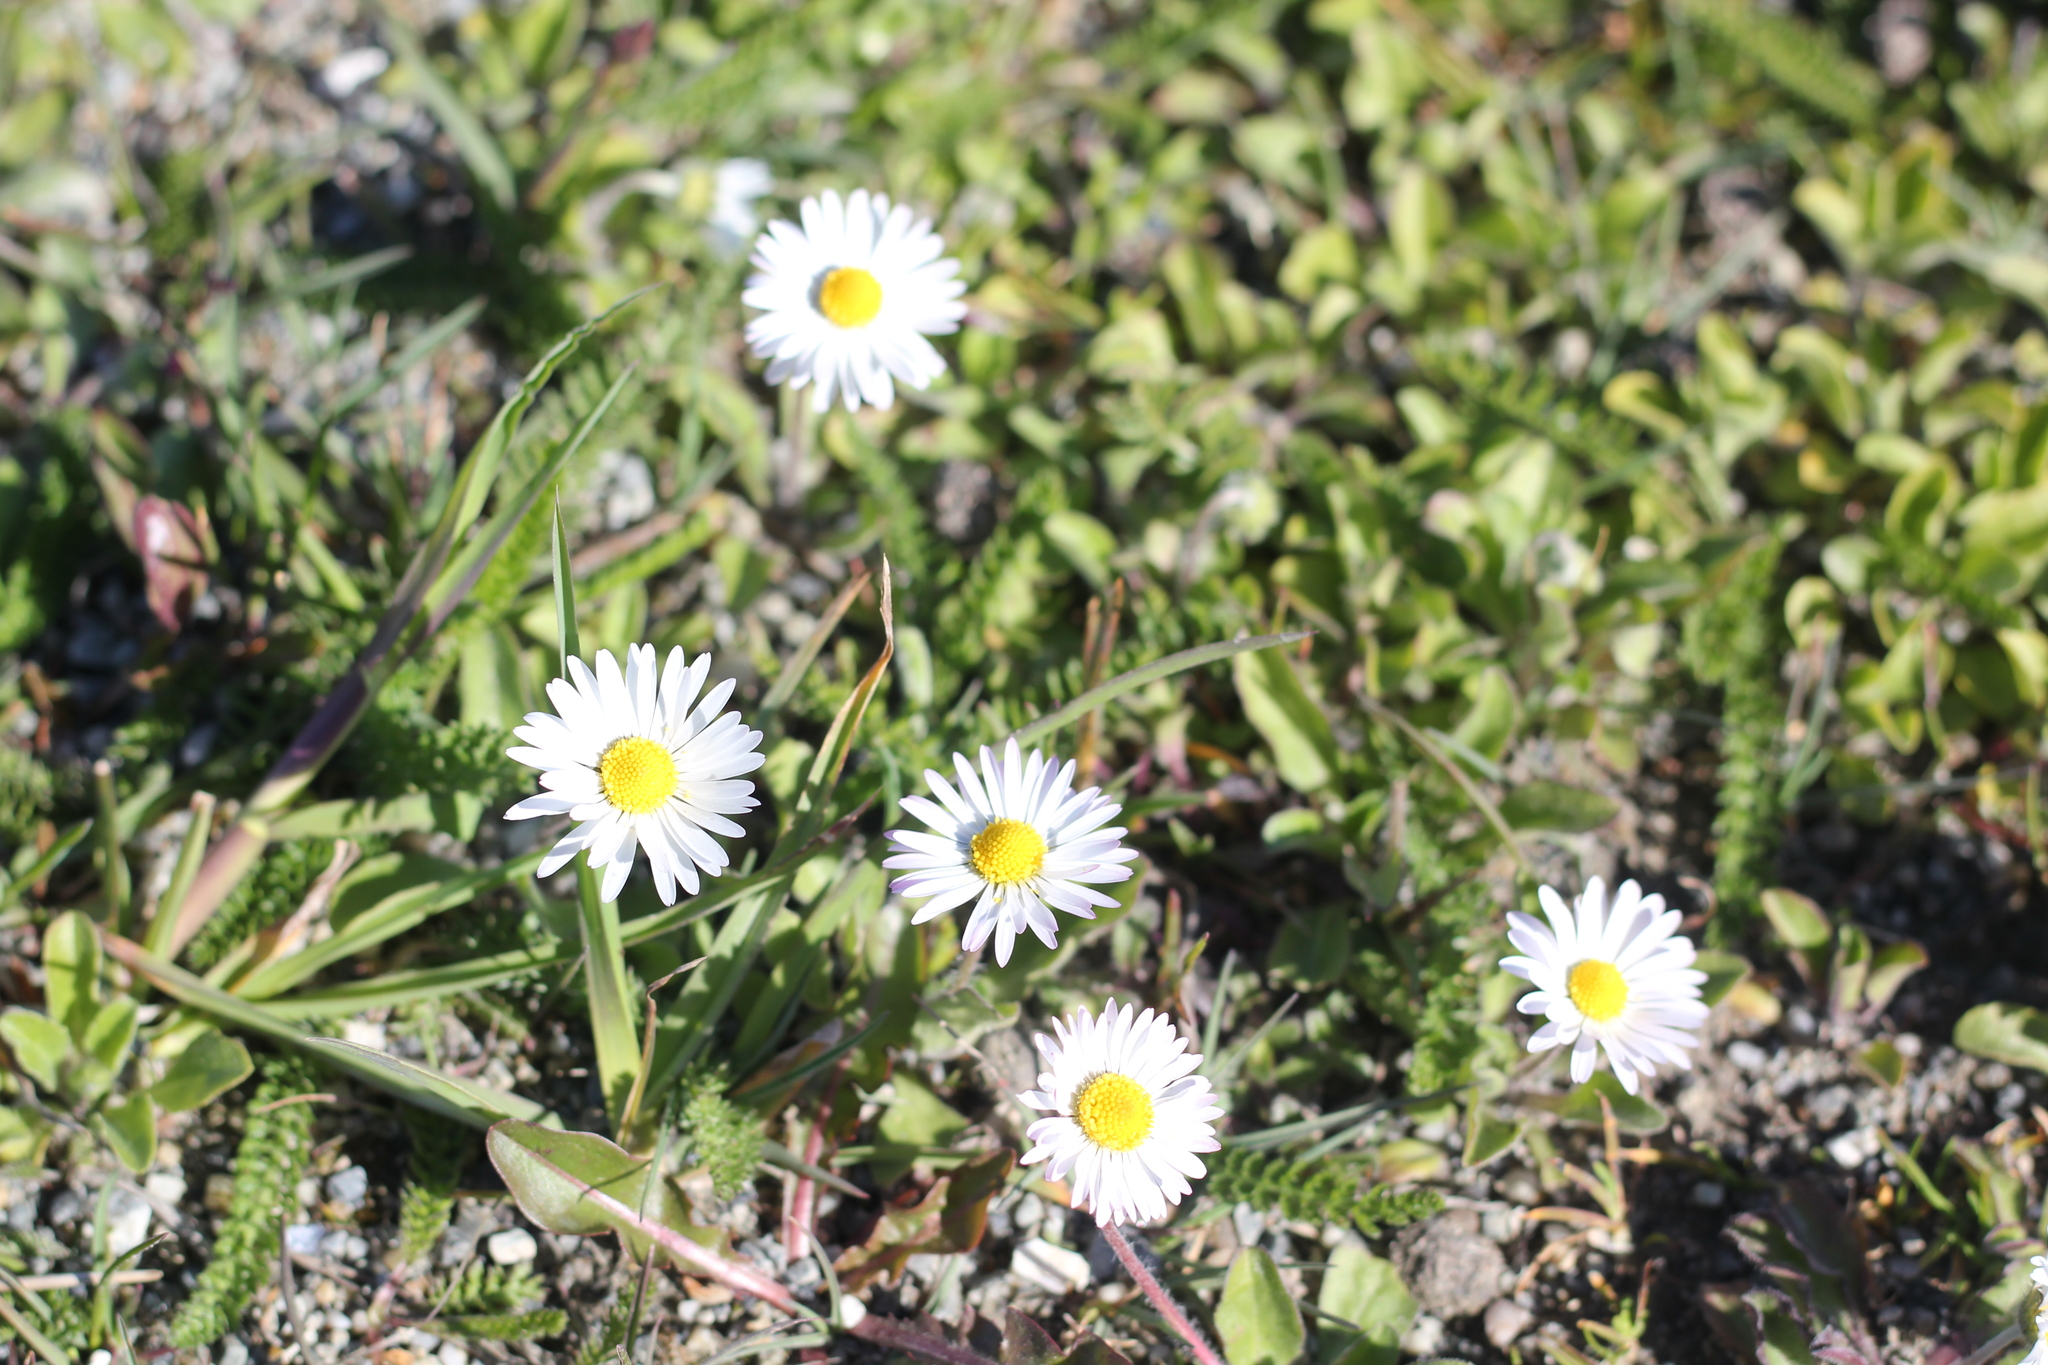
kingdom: Plantae
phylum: Tracheophyta
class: Magnoliopsida
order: Asterales
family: Asteraceae
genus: Bellis
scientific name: Bellis perennis
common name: Lawndaisy
